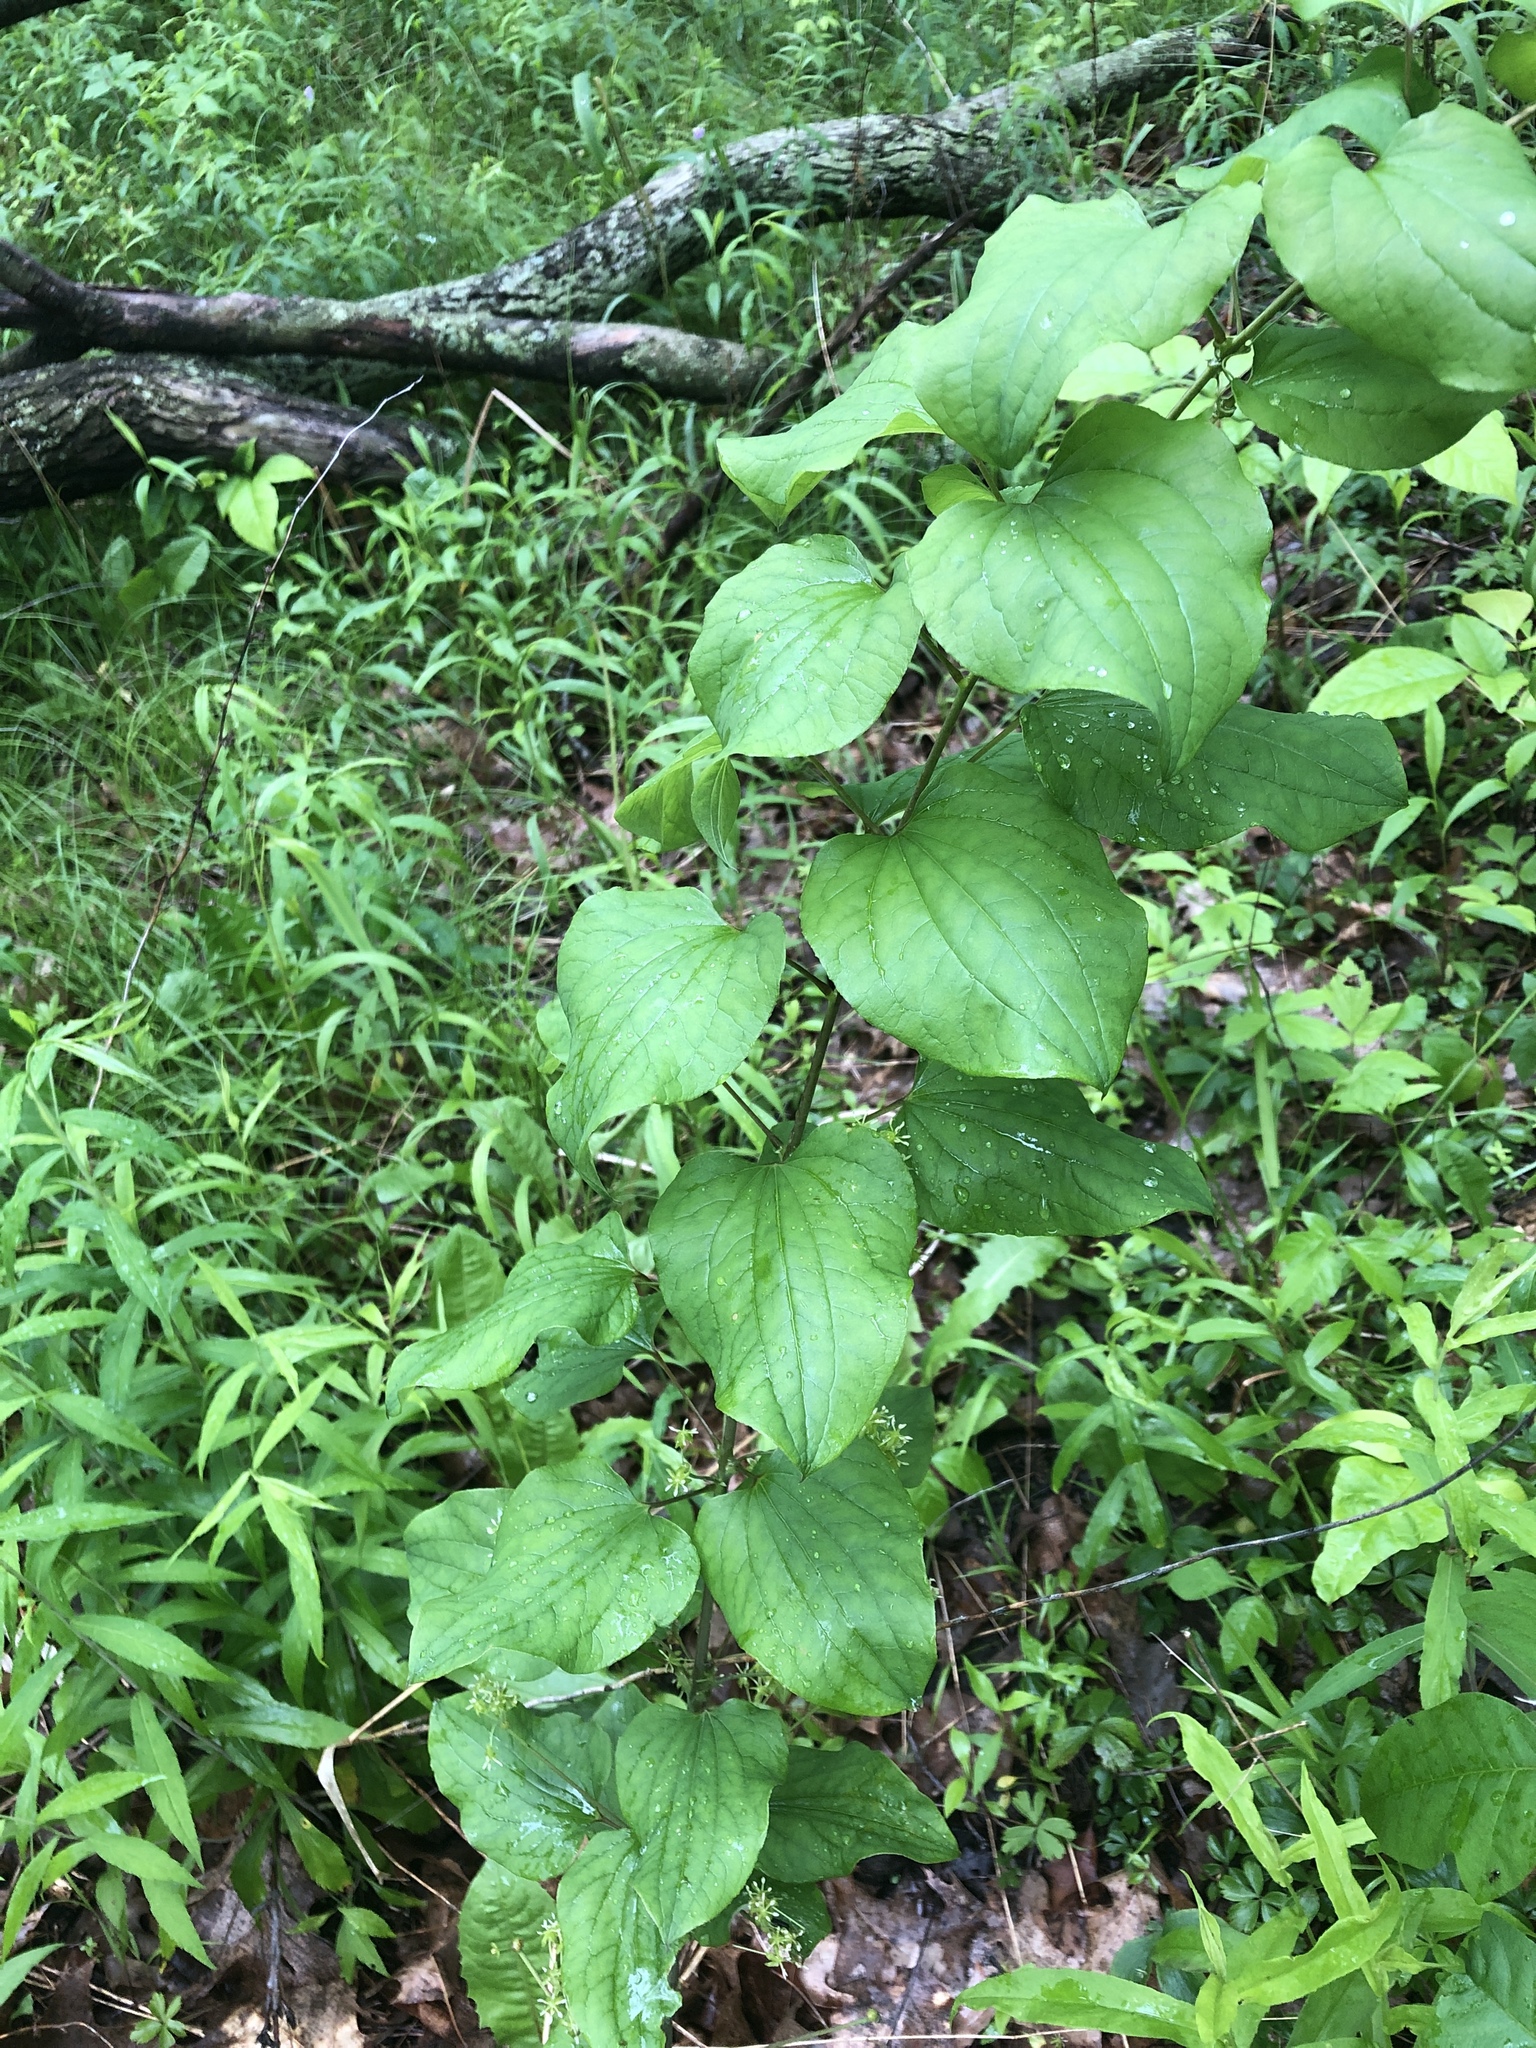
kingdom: Plantae
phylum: Tracheophyta
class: Liliopsida
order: Liliales
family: Smilacaceae
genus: Smilax
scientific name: Smilax tamnoides
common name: Hellfetter
